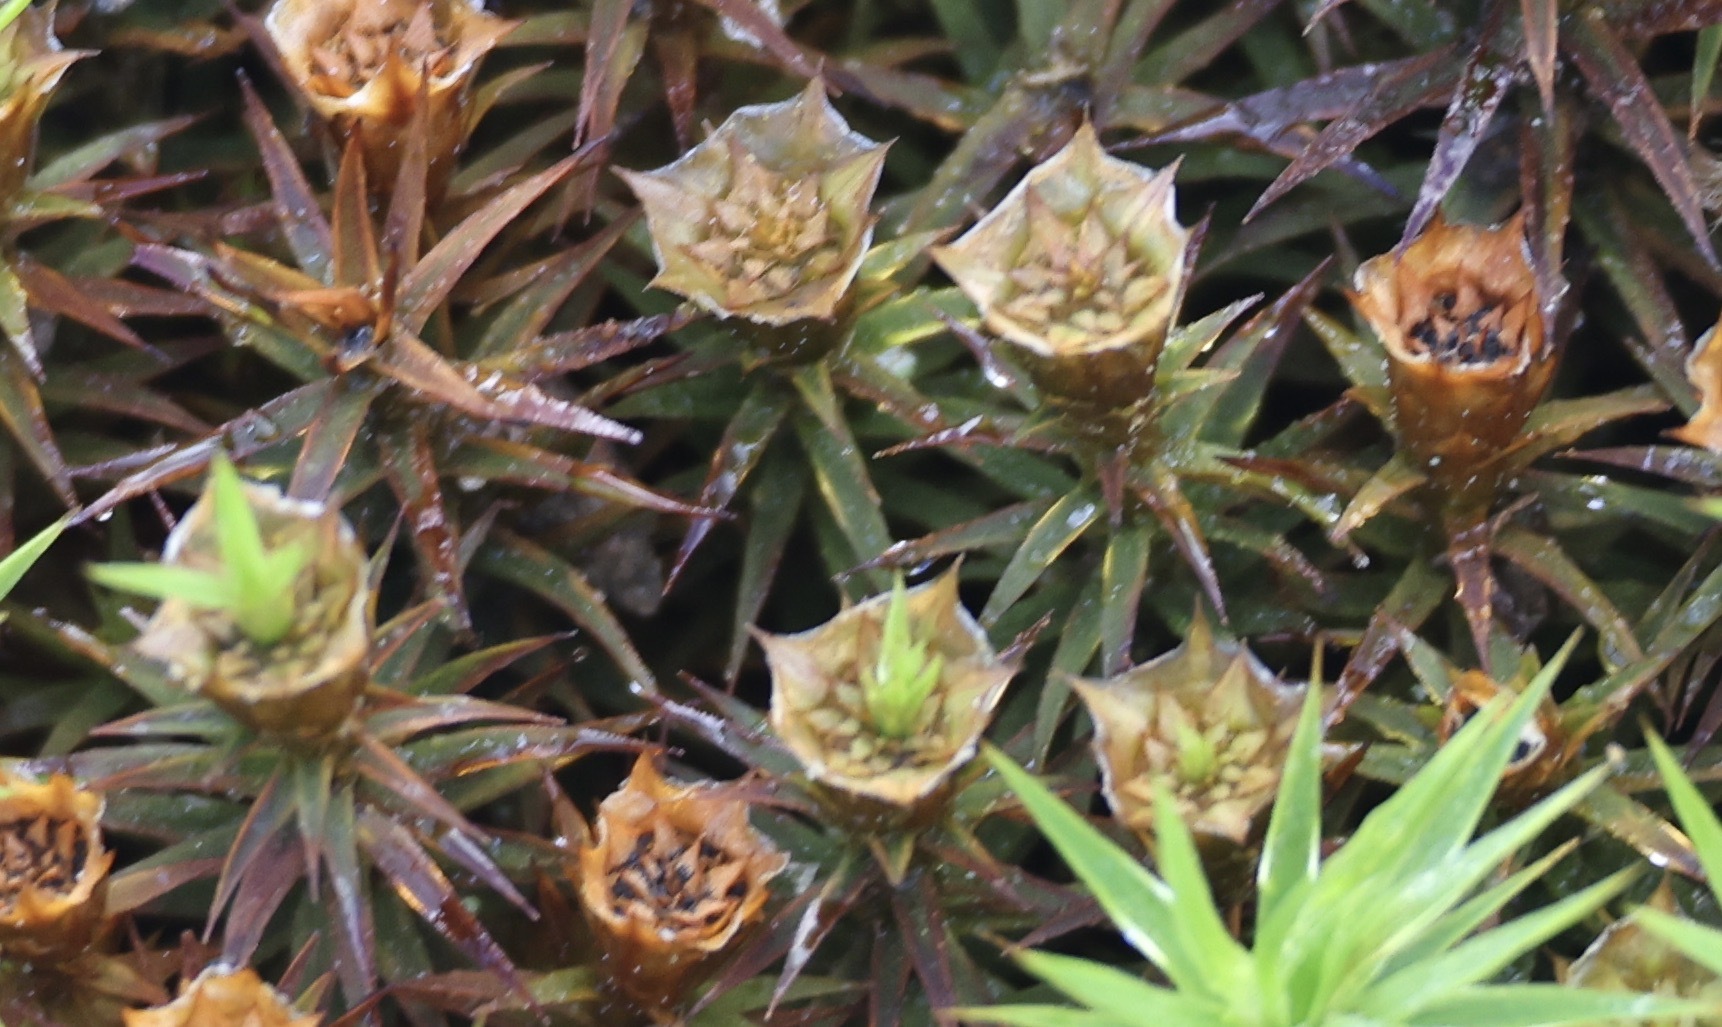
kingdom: Fungi
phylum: Ascomycota
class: Dothideomycetes
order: Pleosporales
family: Lizoniaceae
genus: Lizonia
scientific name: Lizonia baldinii
